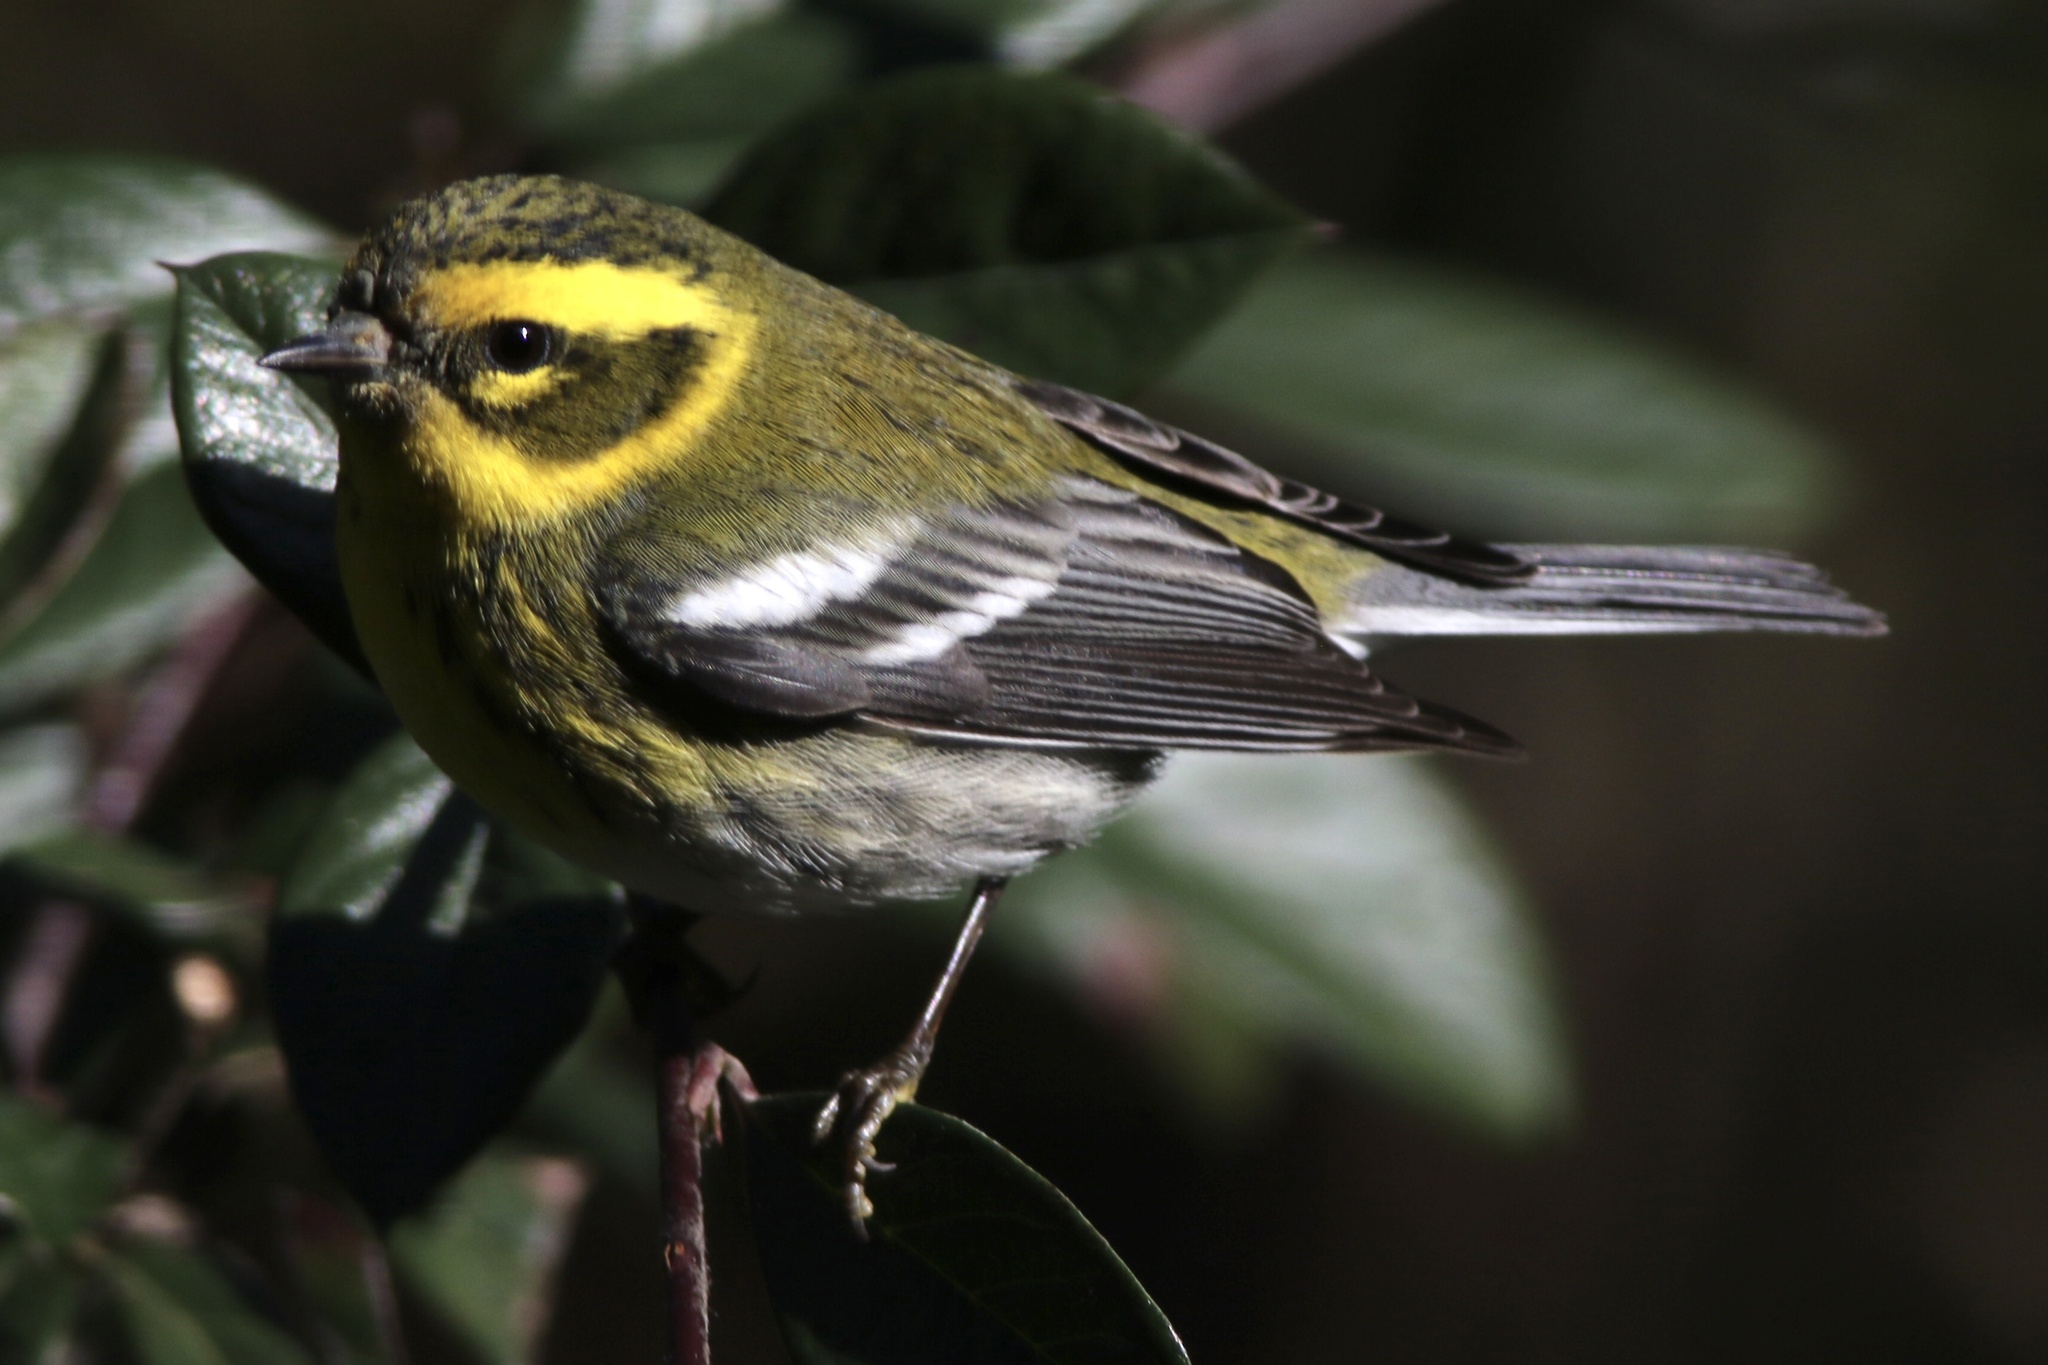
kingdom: Animalia
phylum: Chordata
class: Aves
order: Passeriformes
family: Parulidae
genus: Setophaga
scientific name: Setophaga townsendi
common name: Townsend's warbler
